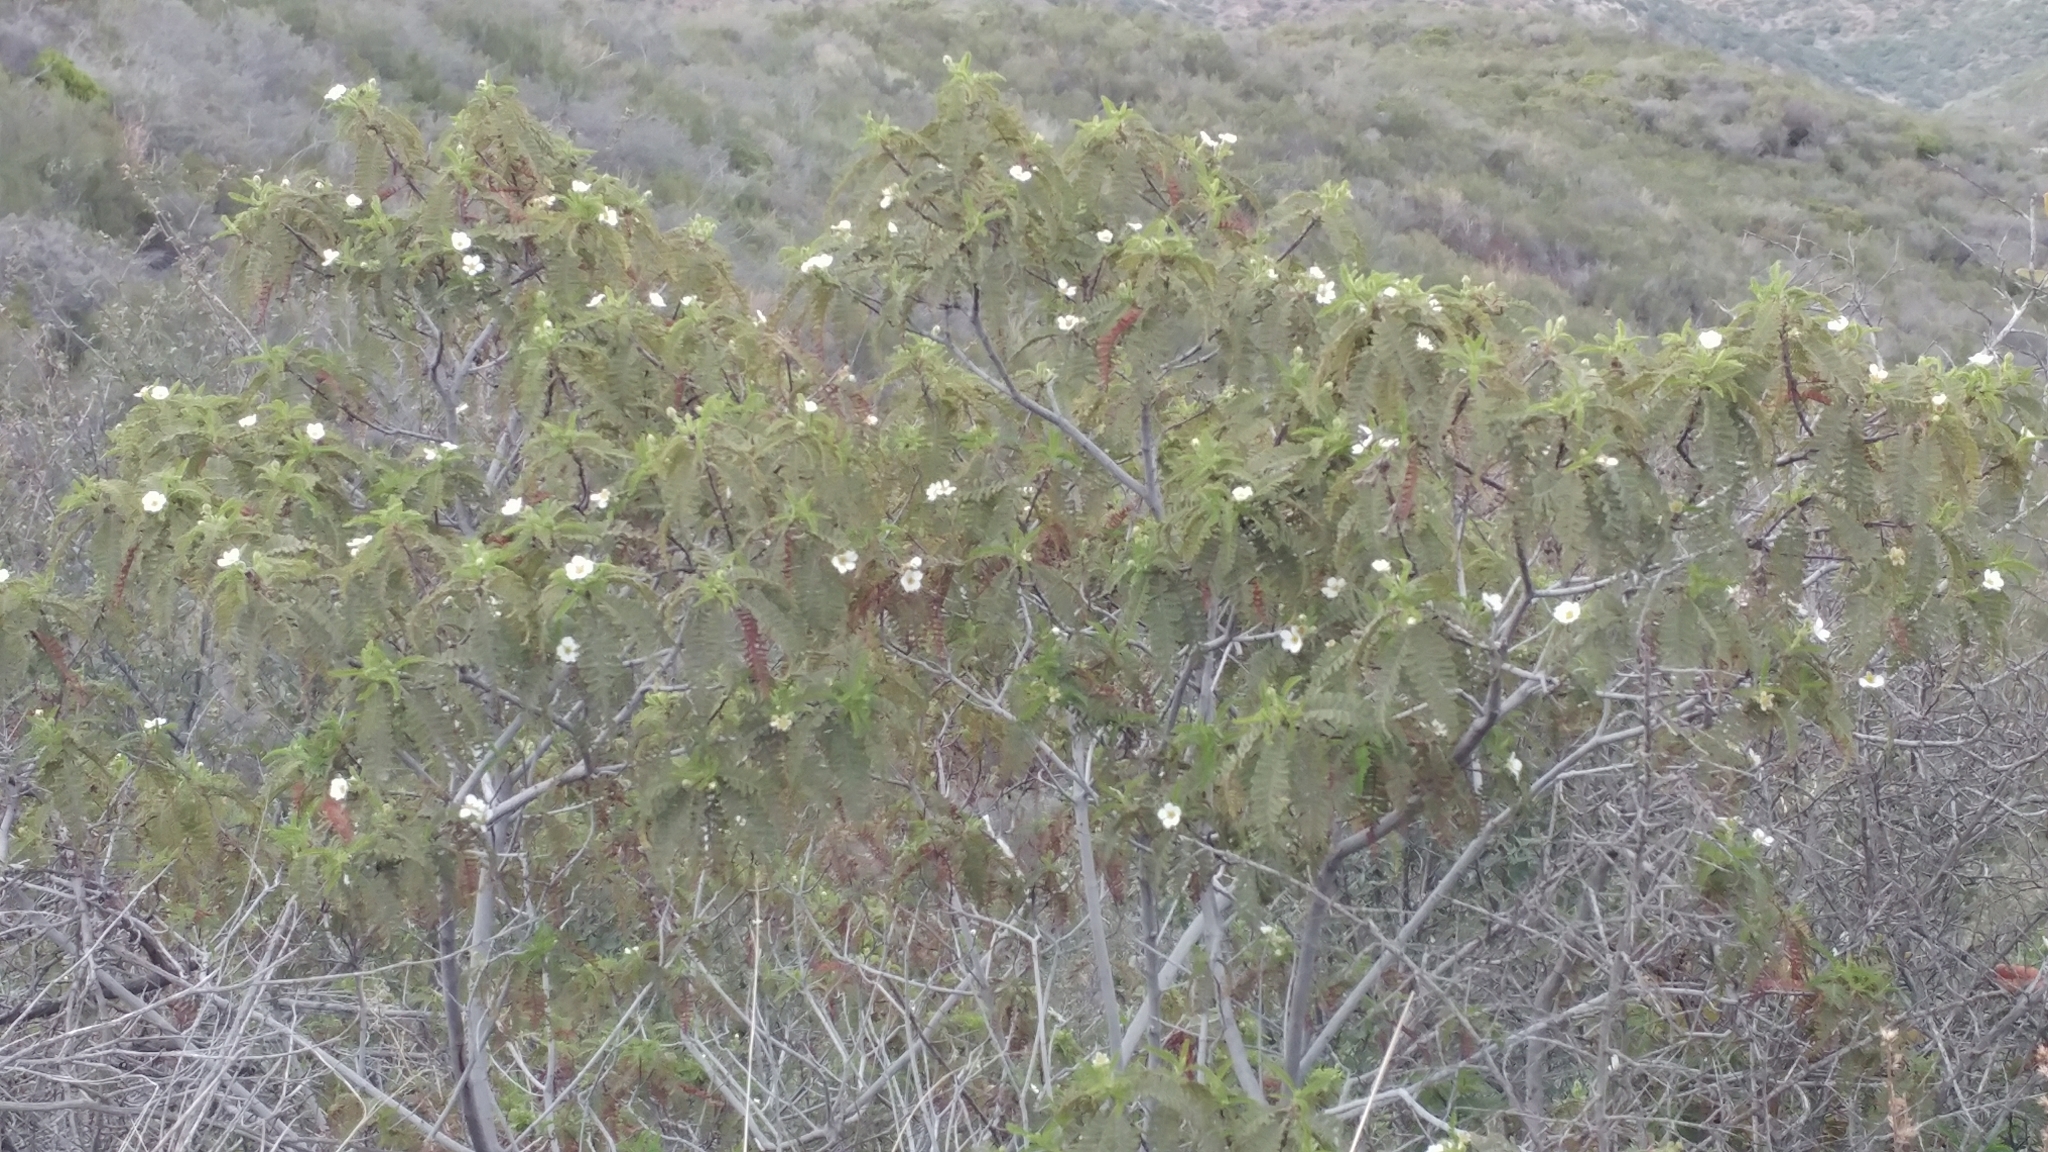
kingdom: Plantae
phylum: Tracheophyta
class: Magnoliopsida
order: Rosales
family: Rosaceae
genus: Chamaebatia
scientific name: Chamaebatia australis
